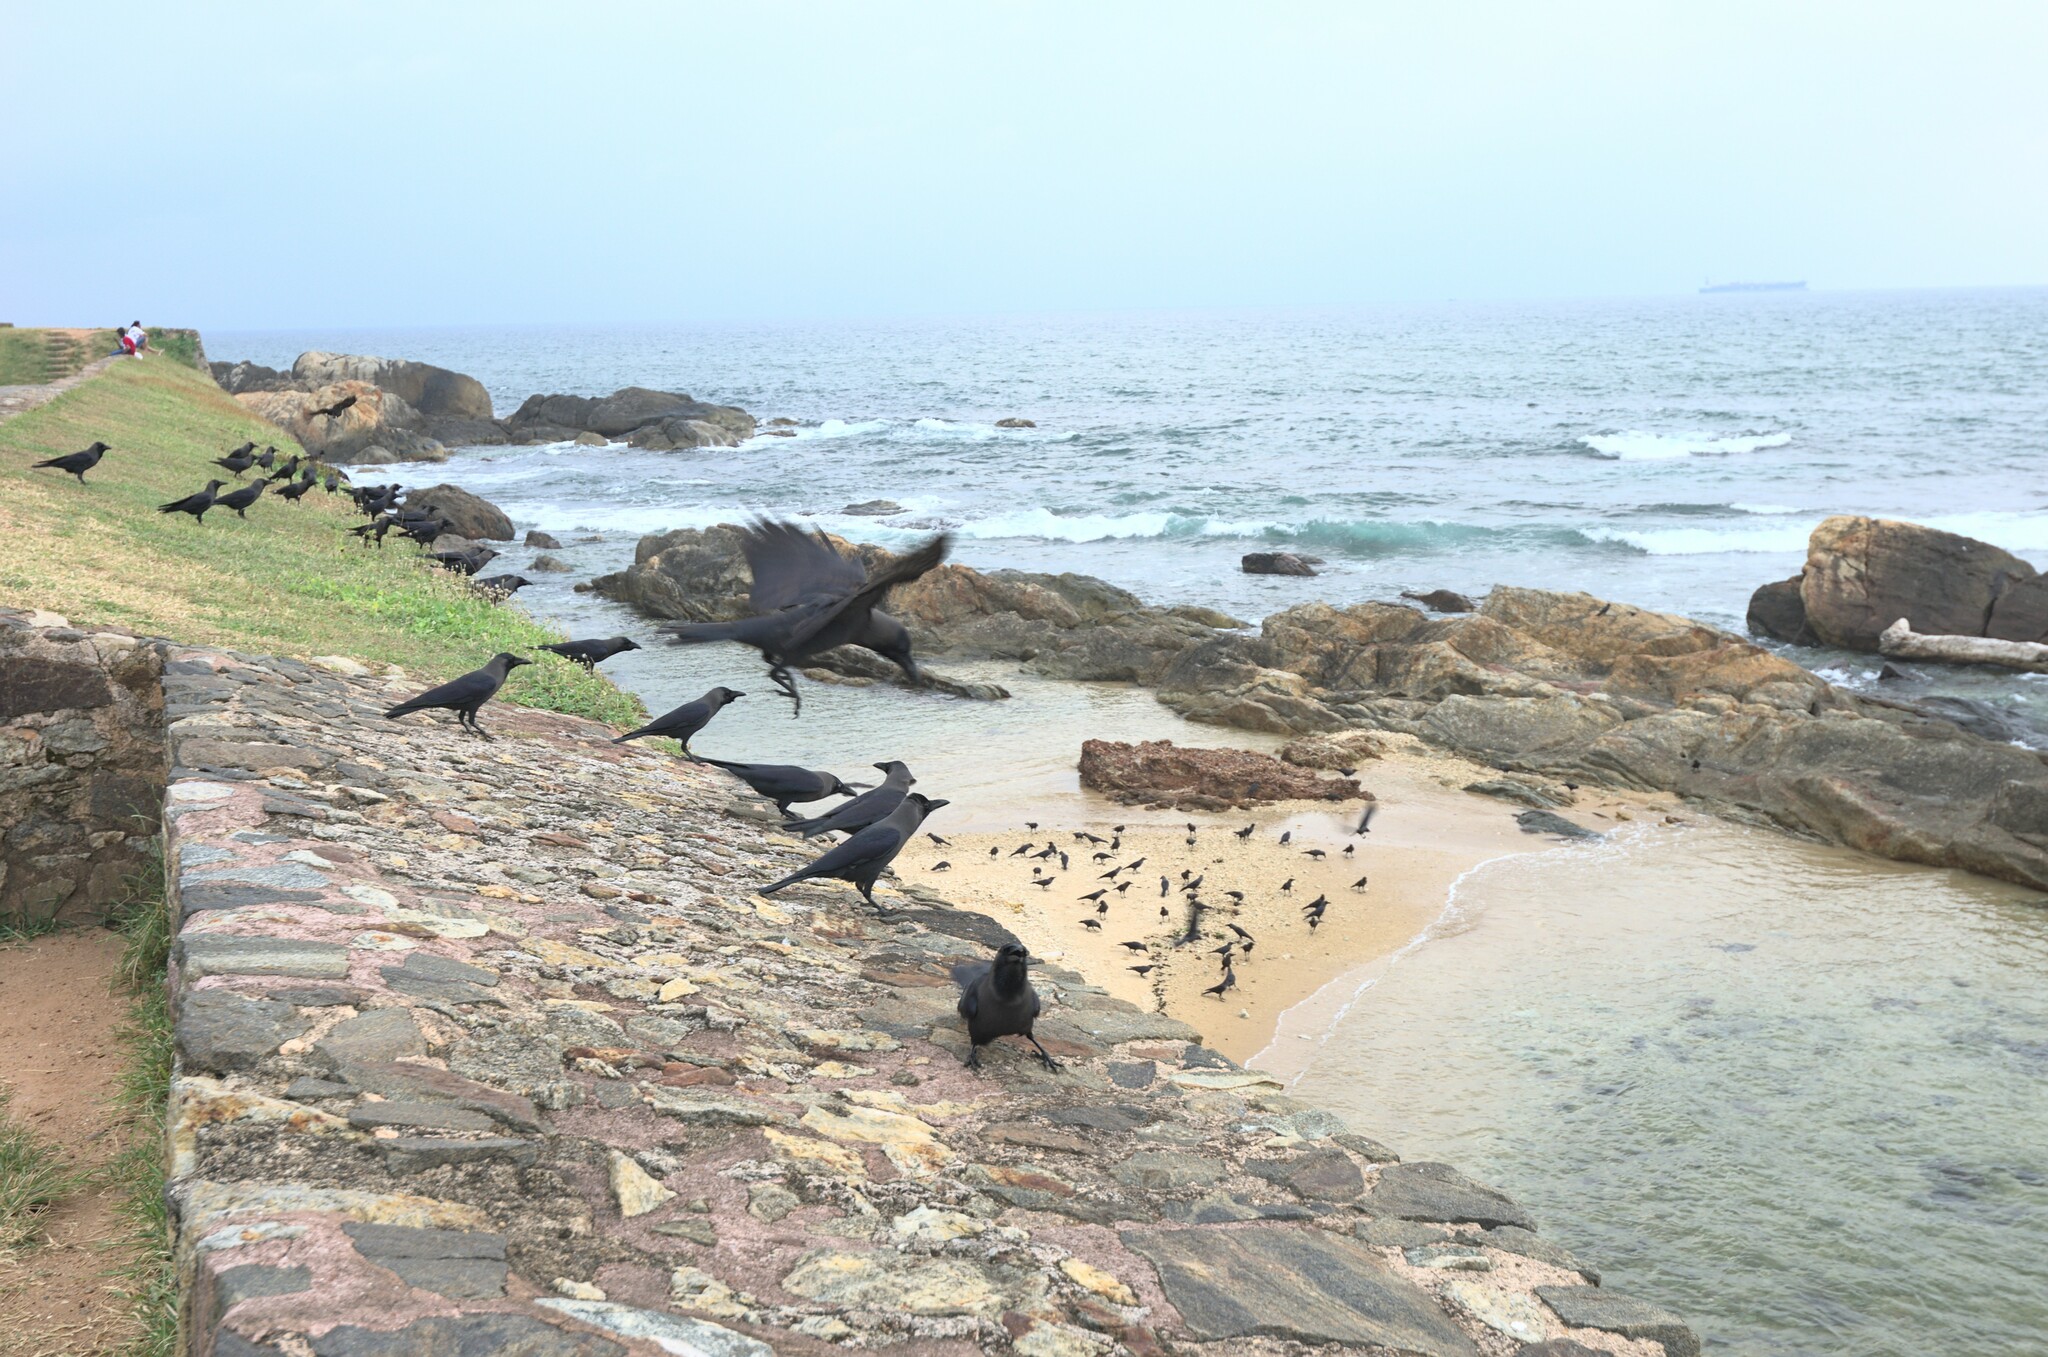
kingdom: Animalia
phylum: Chordata
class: Aves
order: Passeriformes
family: Corvidae
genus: Corvus
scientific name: Corvus splendens
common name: House crow
